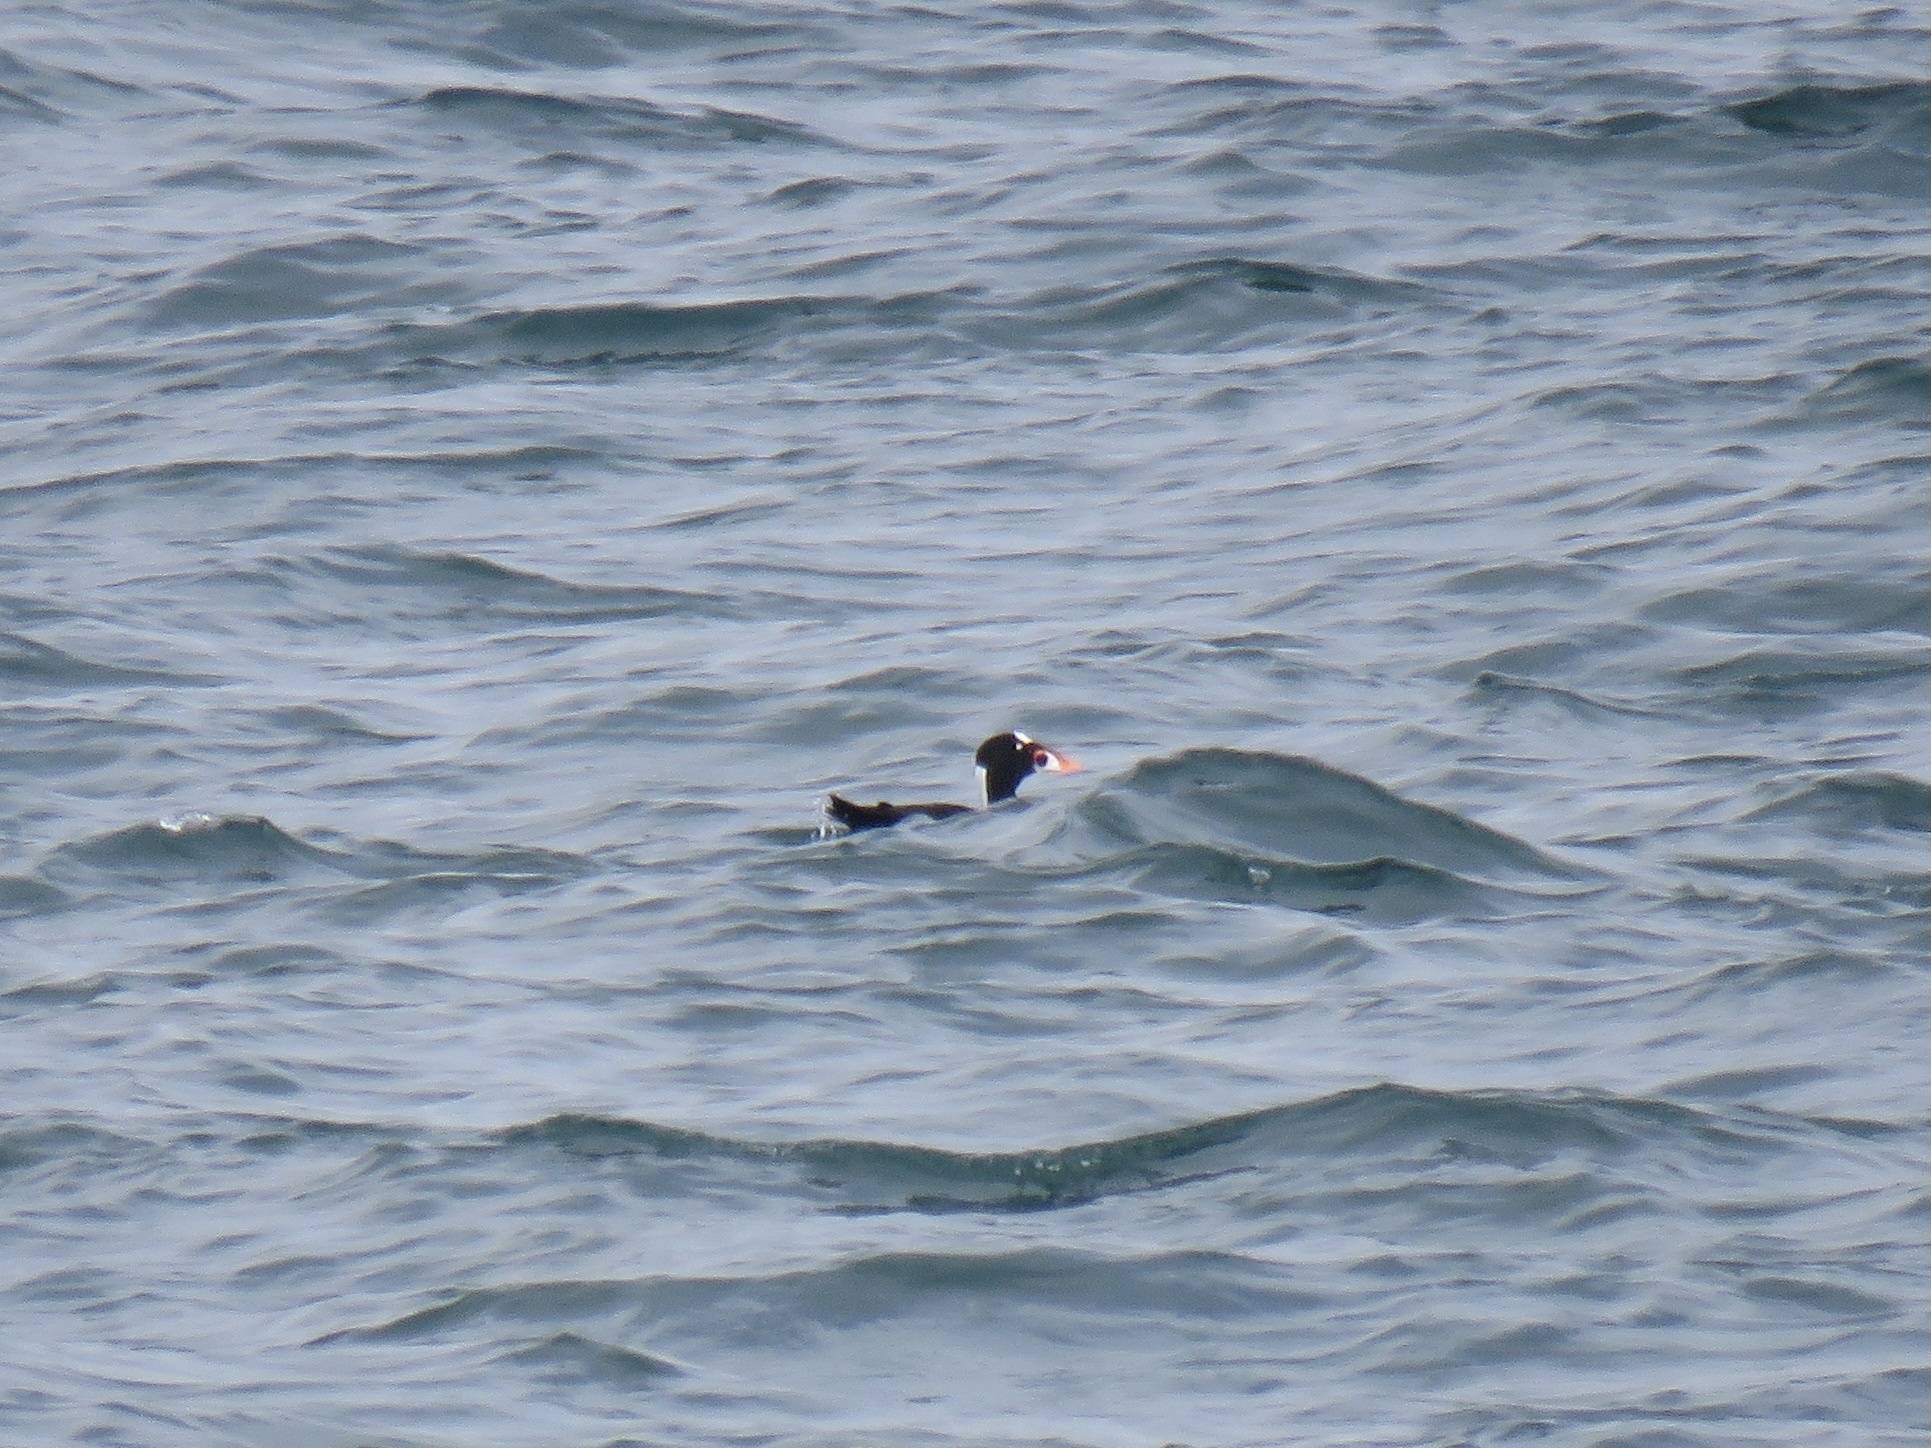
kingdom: Animalia
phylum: Chordata
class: Aves
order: Anseriformes
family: Anatidae
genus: Melanitta
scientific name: Melanitta perspicillata
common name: Surf scoter
